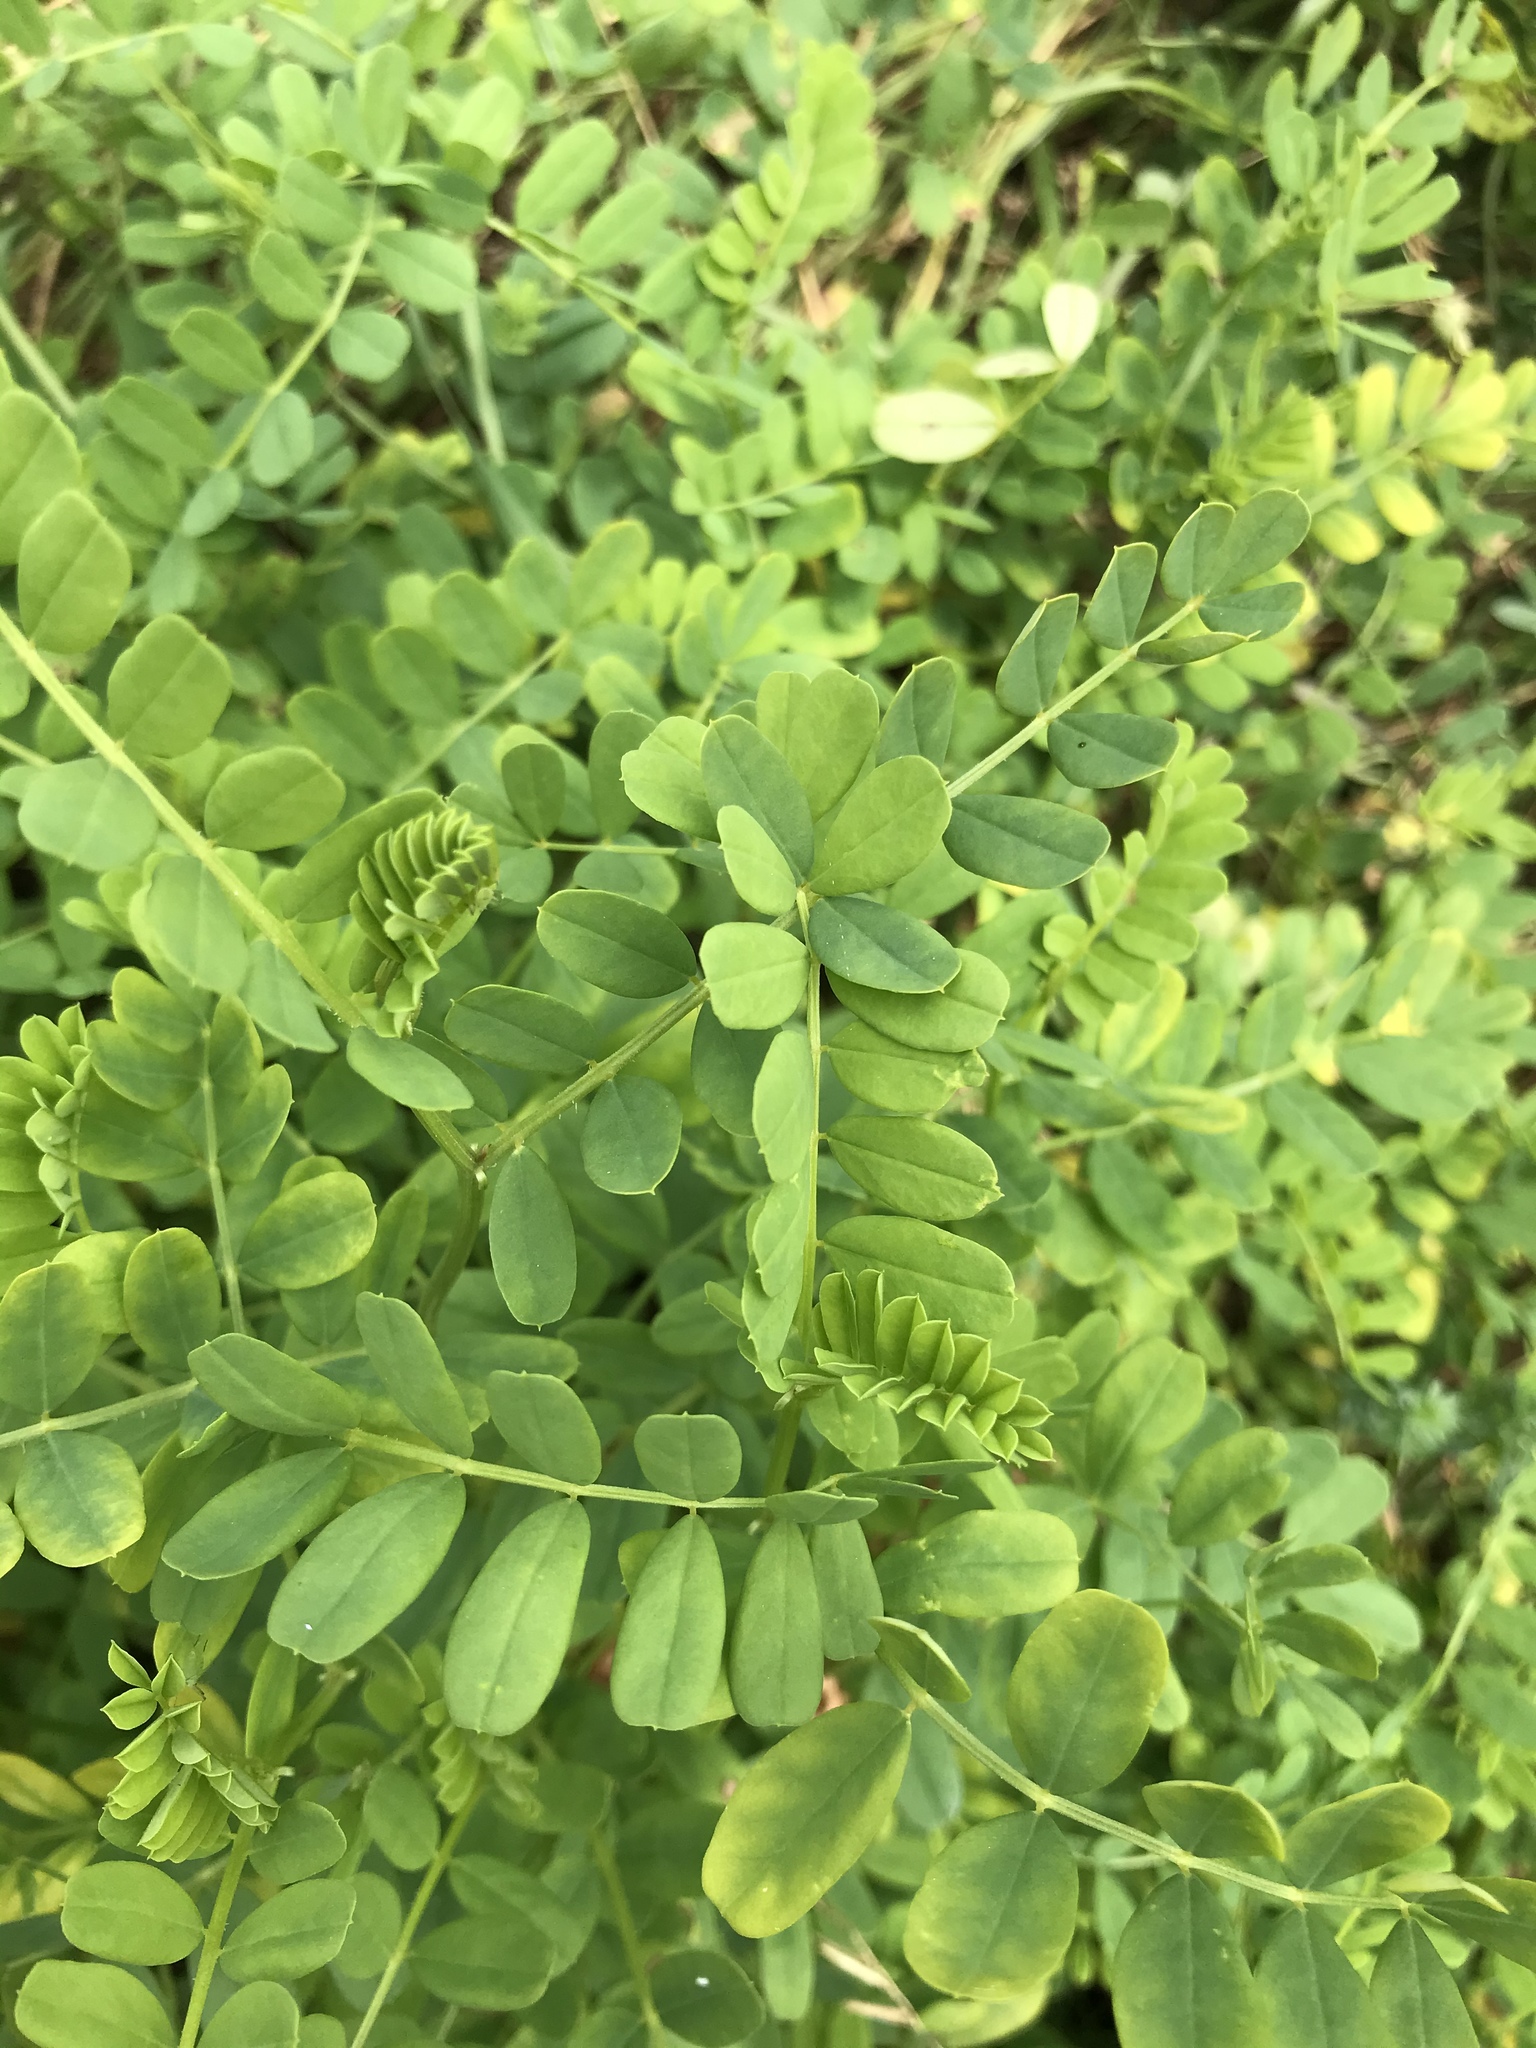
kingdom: Plantae
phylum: Tracheophyta
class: Magnoliopsida
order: Fabales
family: Fabaceae
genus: Coronilla
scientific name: Coronilla varia
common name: Crownvetch
